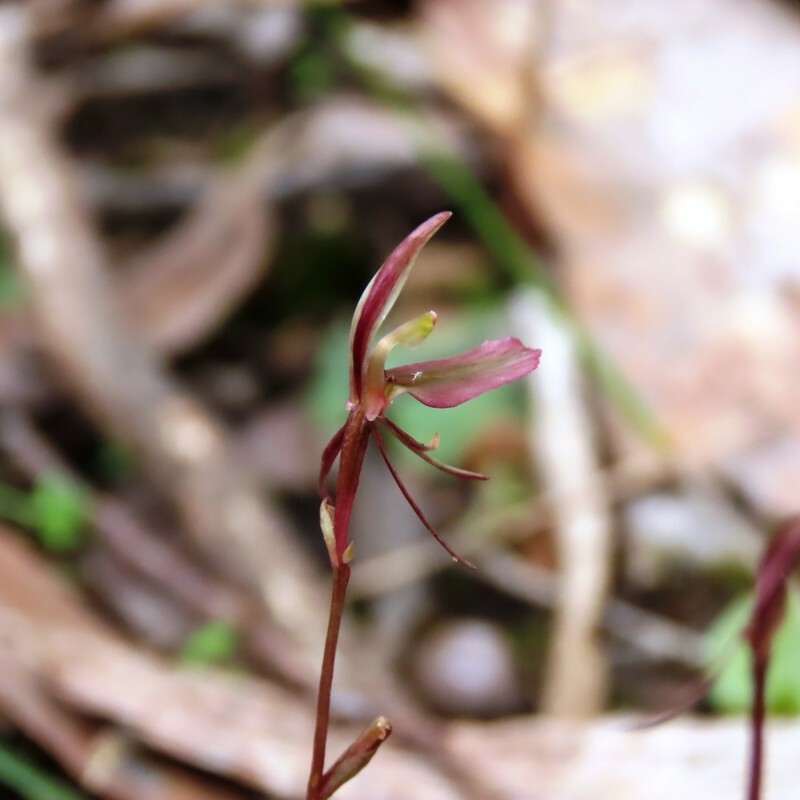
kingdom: Plantae
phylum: Tracheophyta
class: Liliopsida
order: Asparagales
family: Orchidaceae
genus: Cyrtostylis
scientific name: Cyrtostylis reniformis
